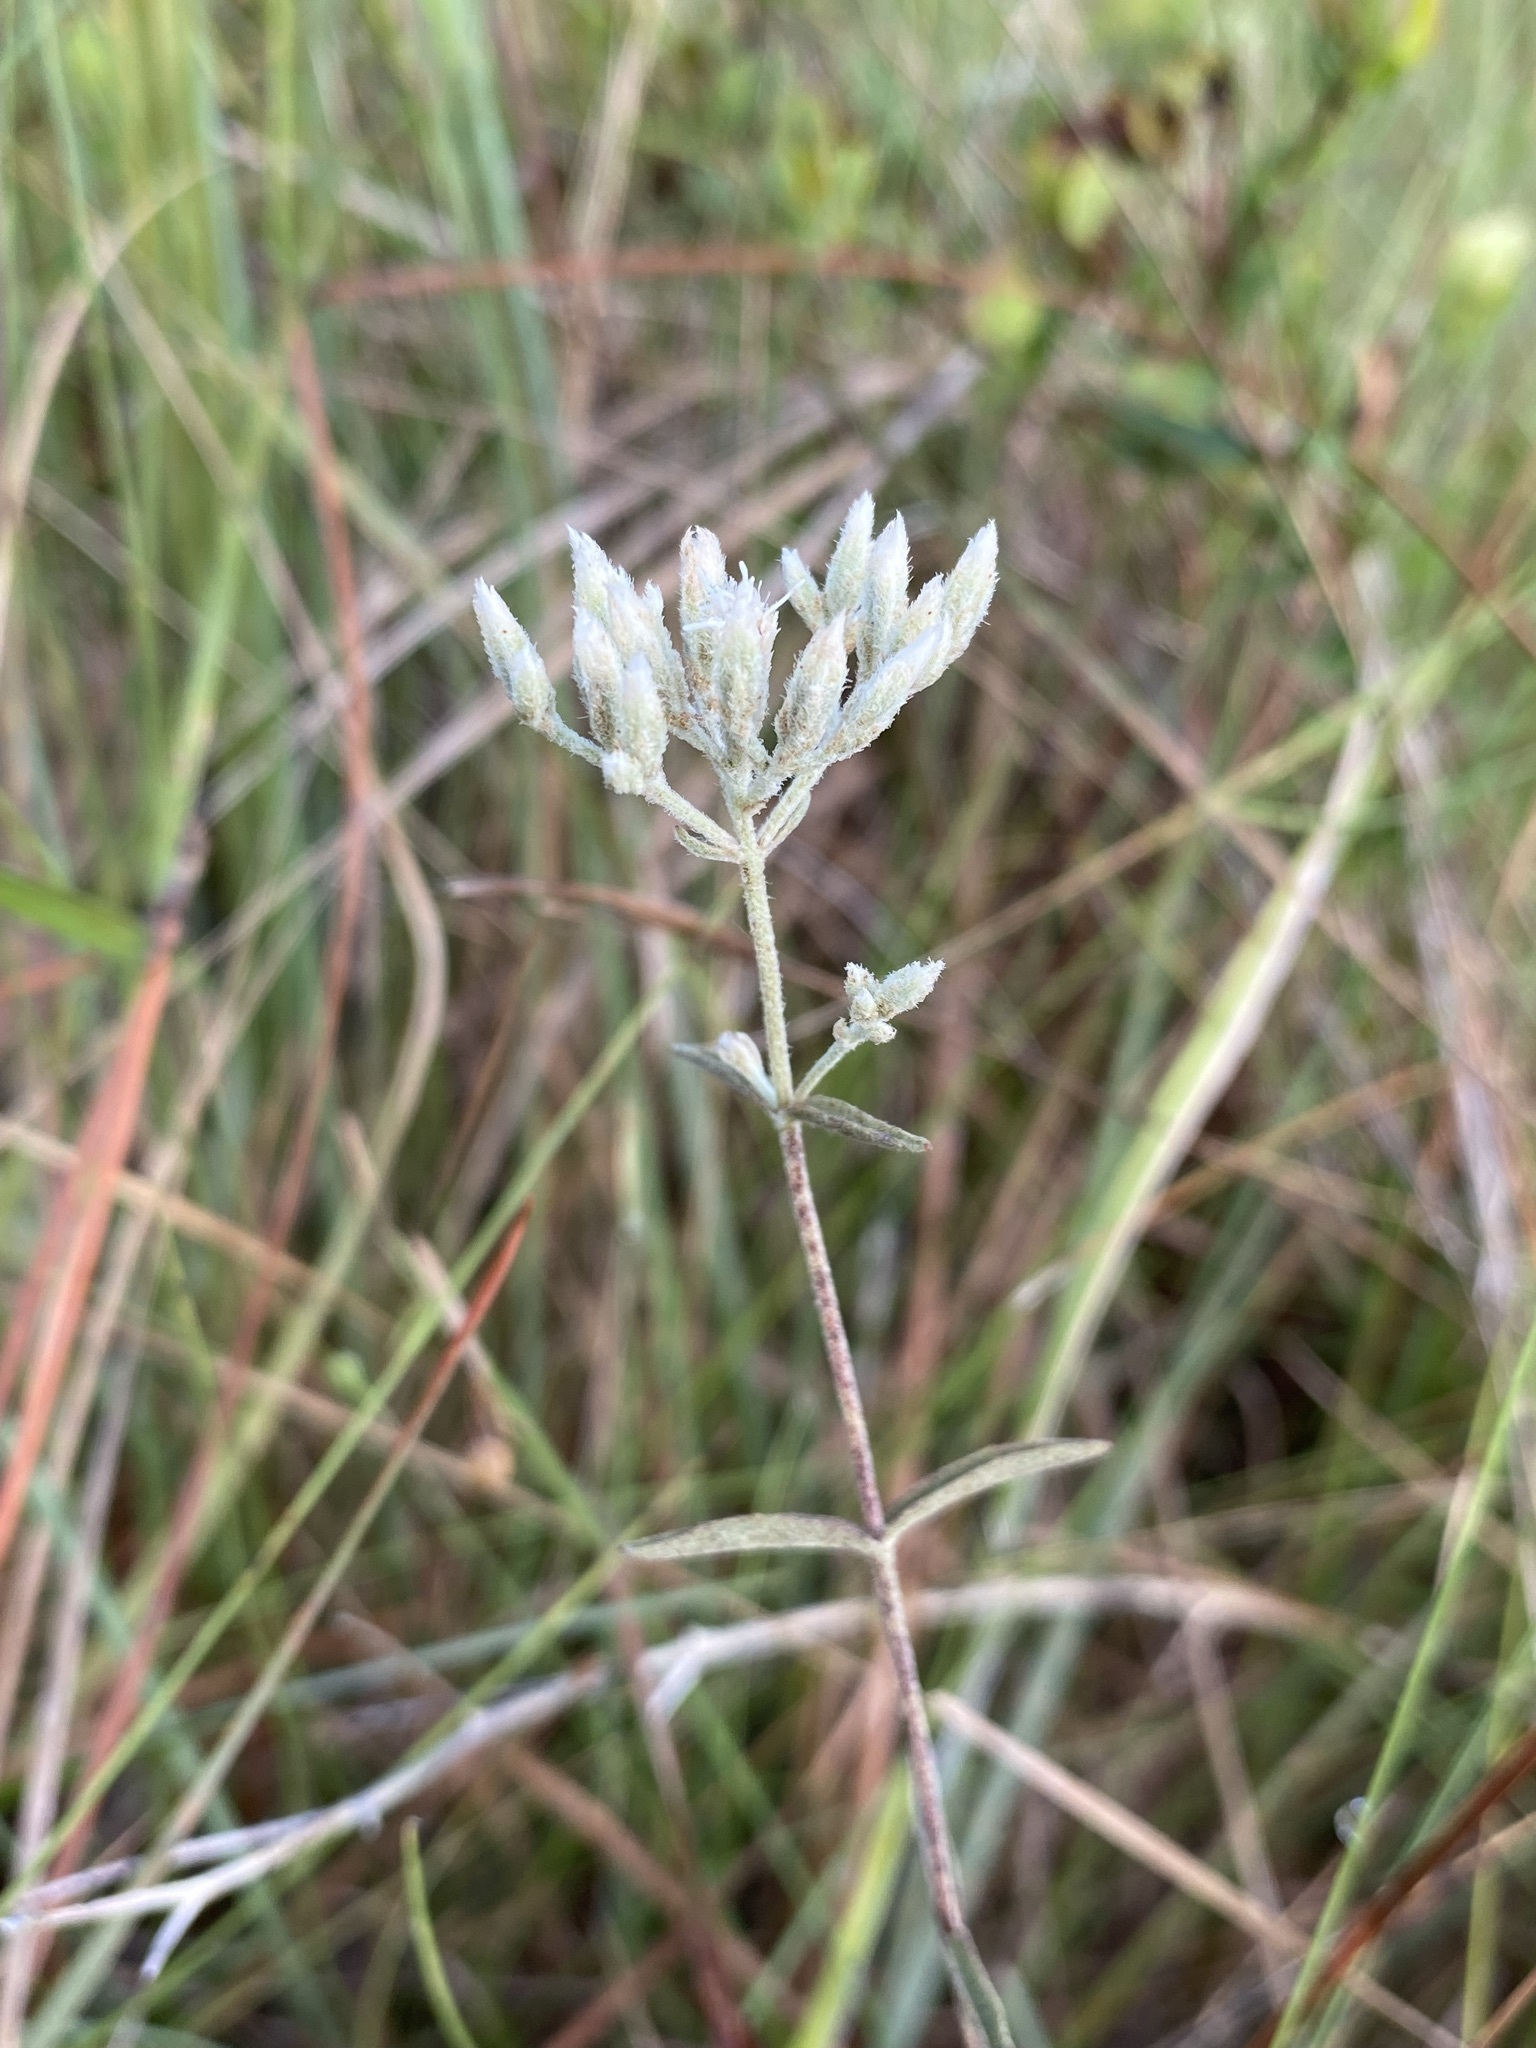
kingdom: Plantae
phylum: Tracheophyta
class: Magnoliopsida
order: Asterales
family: Asteraceae
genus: Eupatorium
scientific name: Eupatorium leucolepis
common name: Justiceweed
